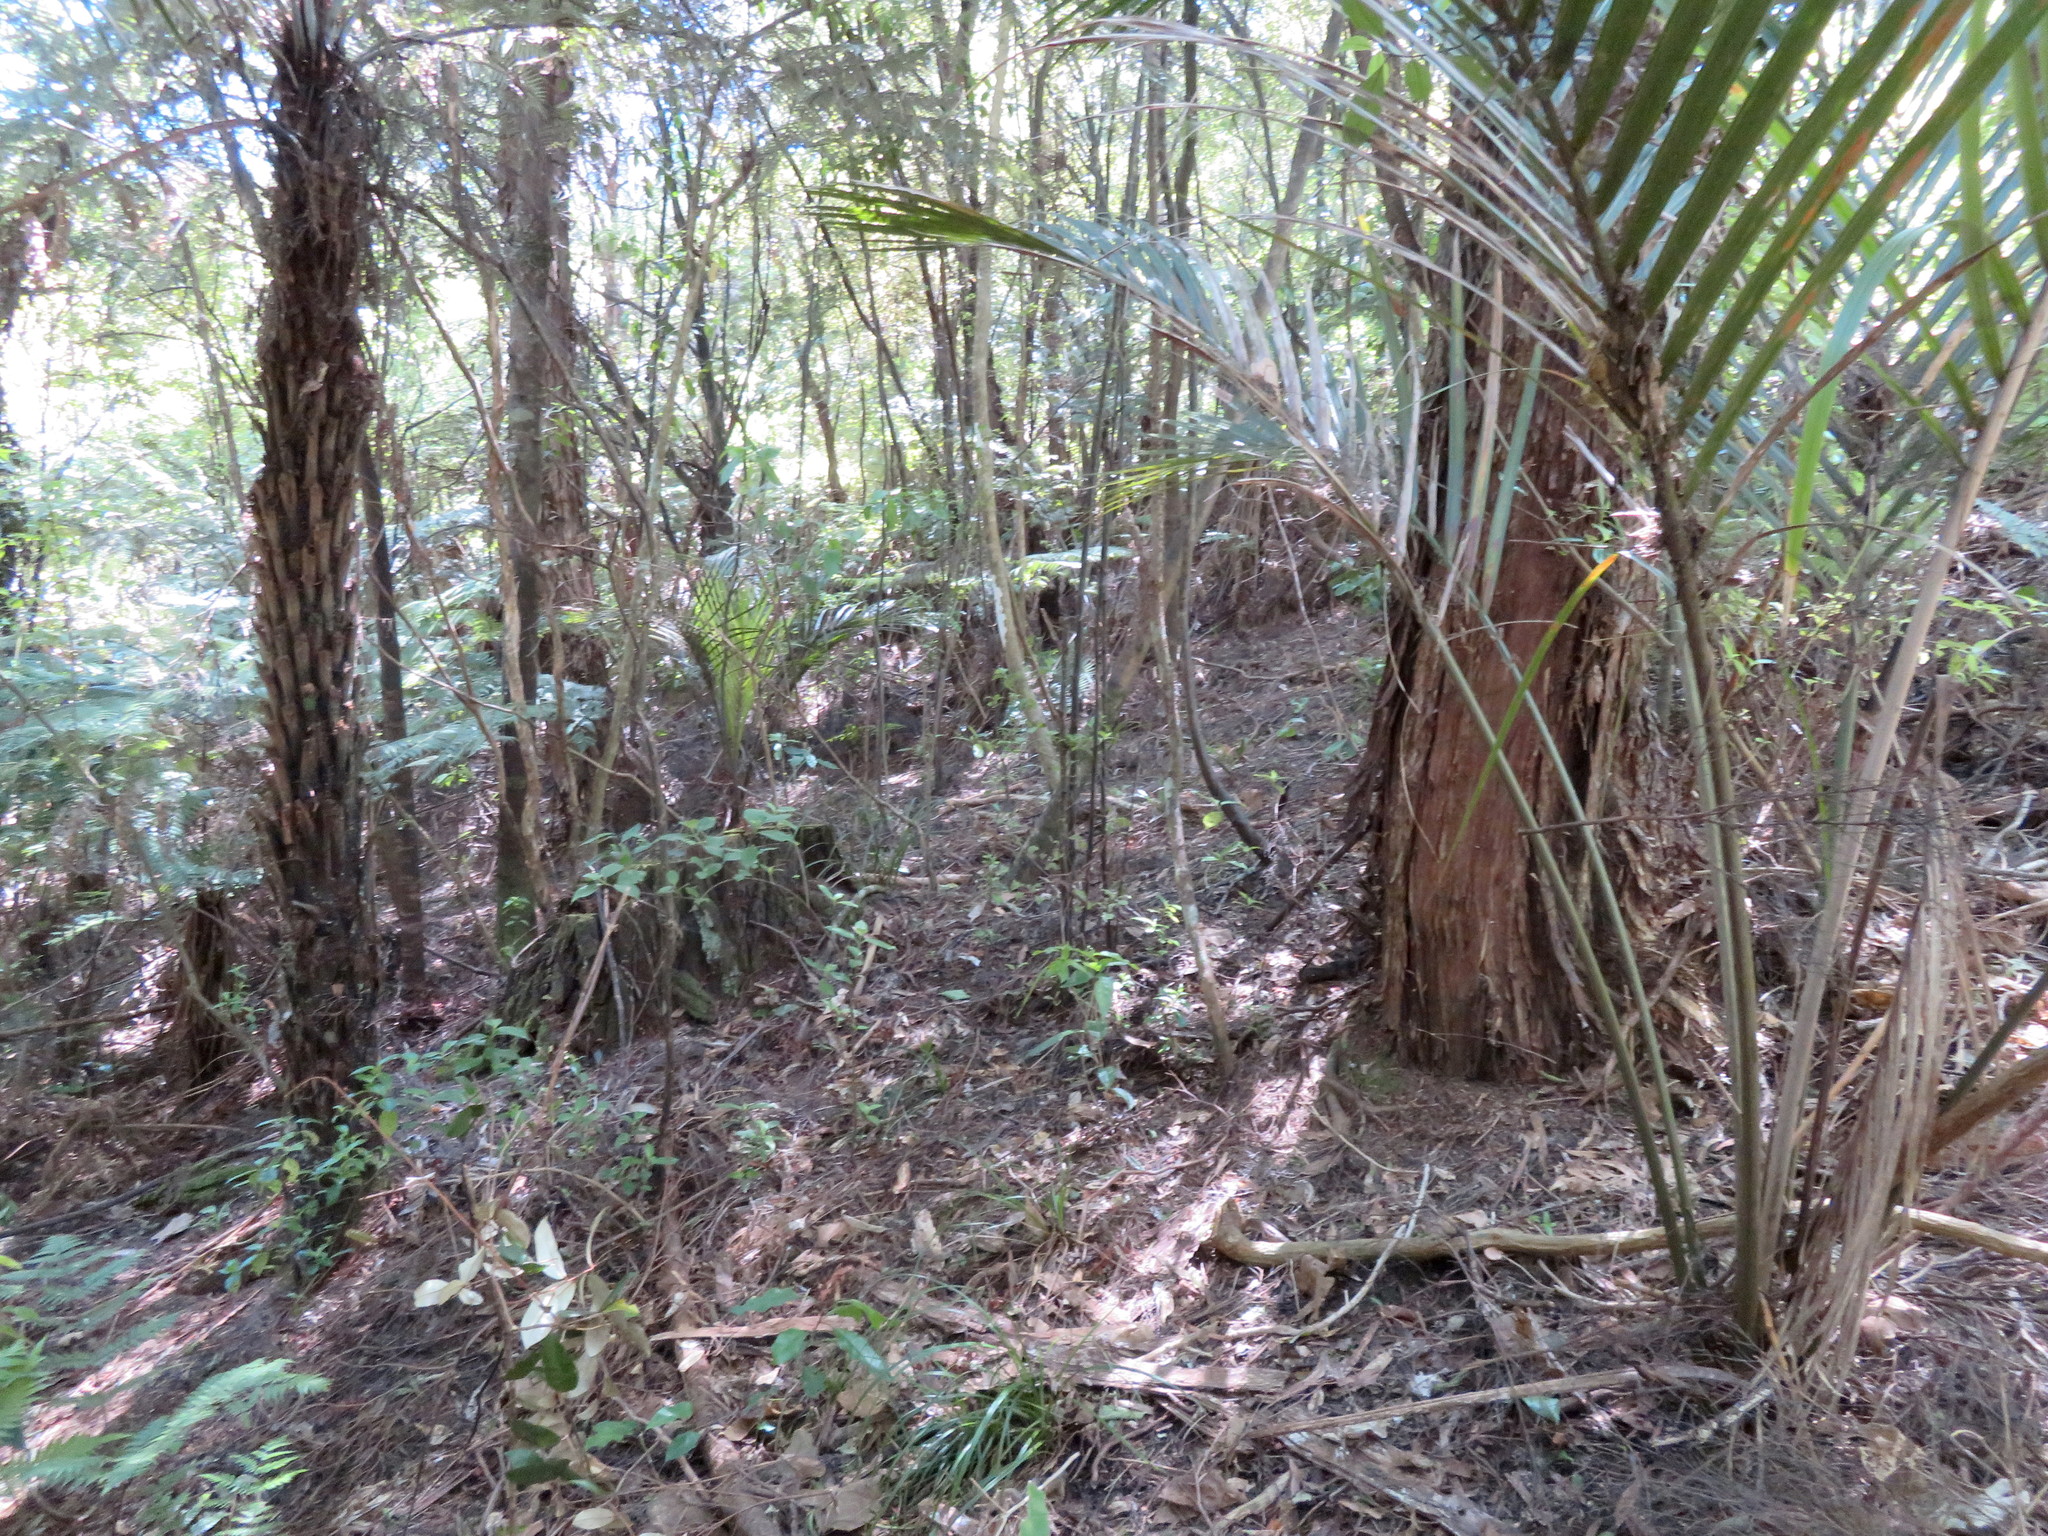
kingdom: Plantae
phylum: Tracheophyta
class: Liliopsida
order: Arecales
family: Arecaceae
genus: Rhopalostylis
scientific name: Rhopalostylis sapida
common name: Feather-duster palm
